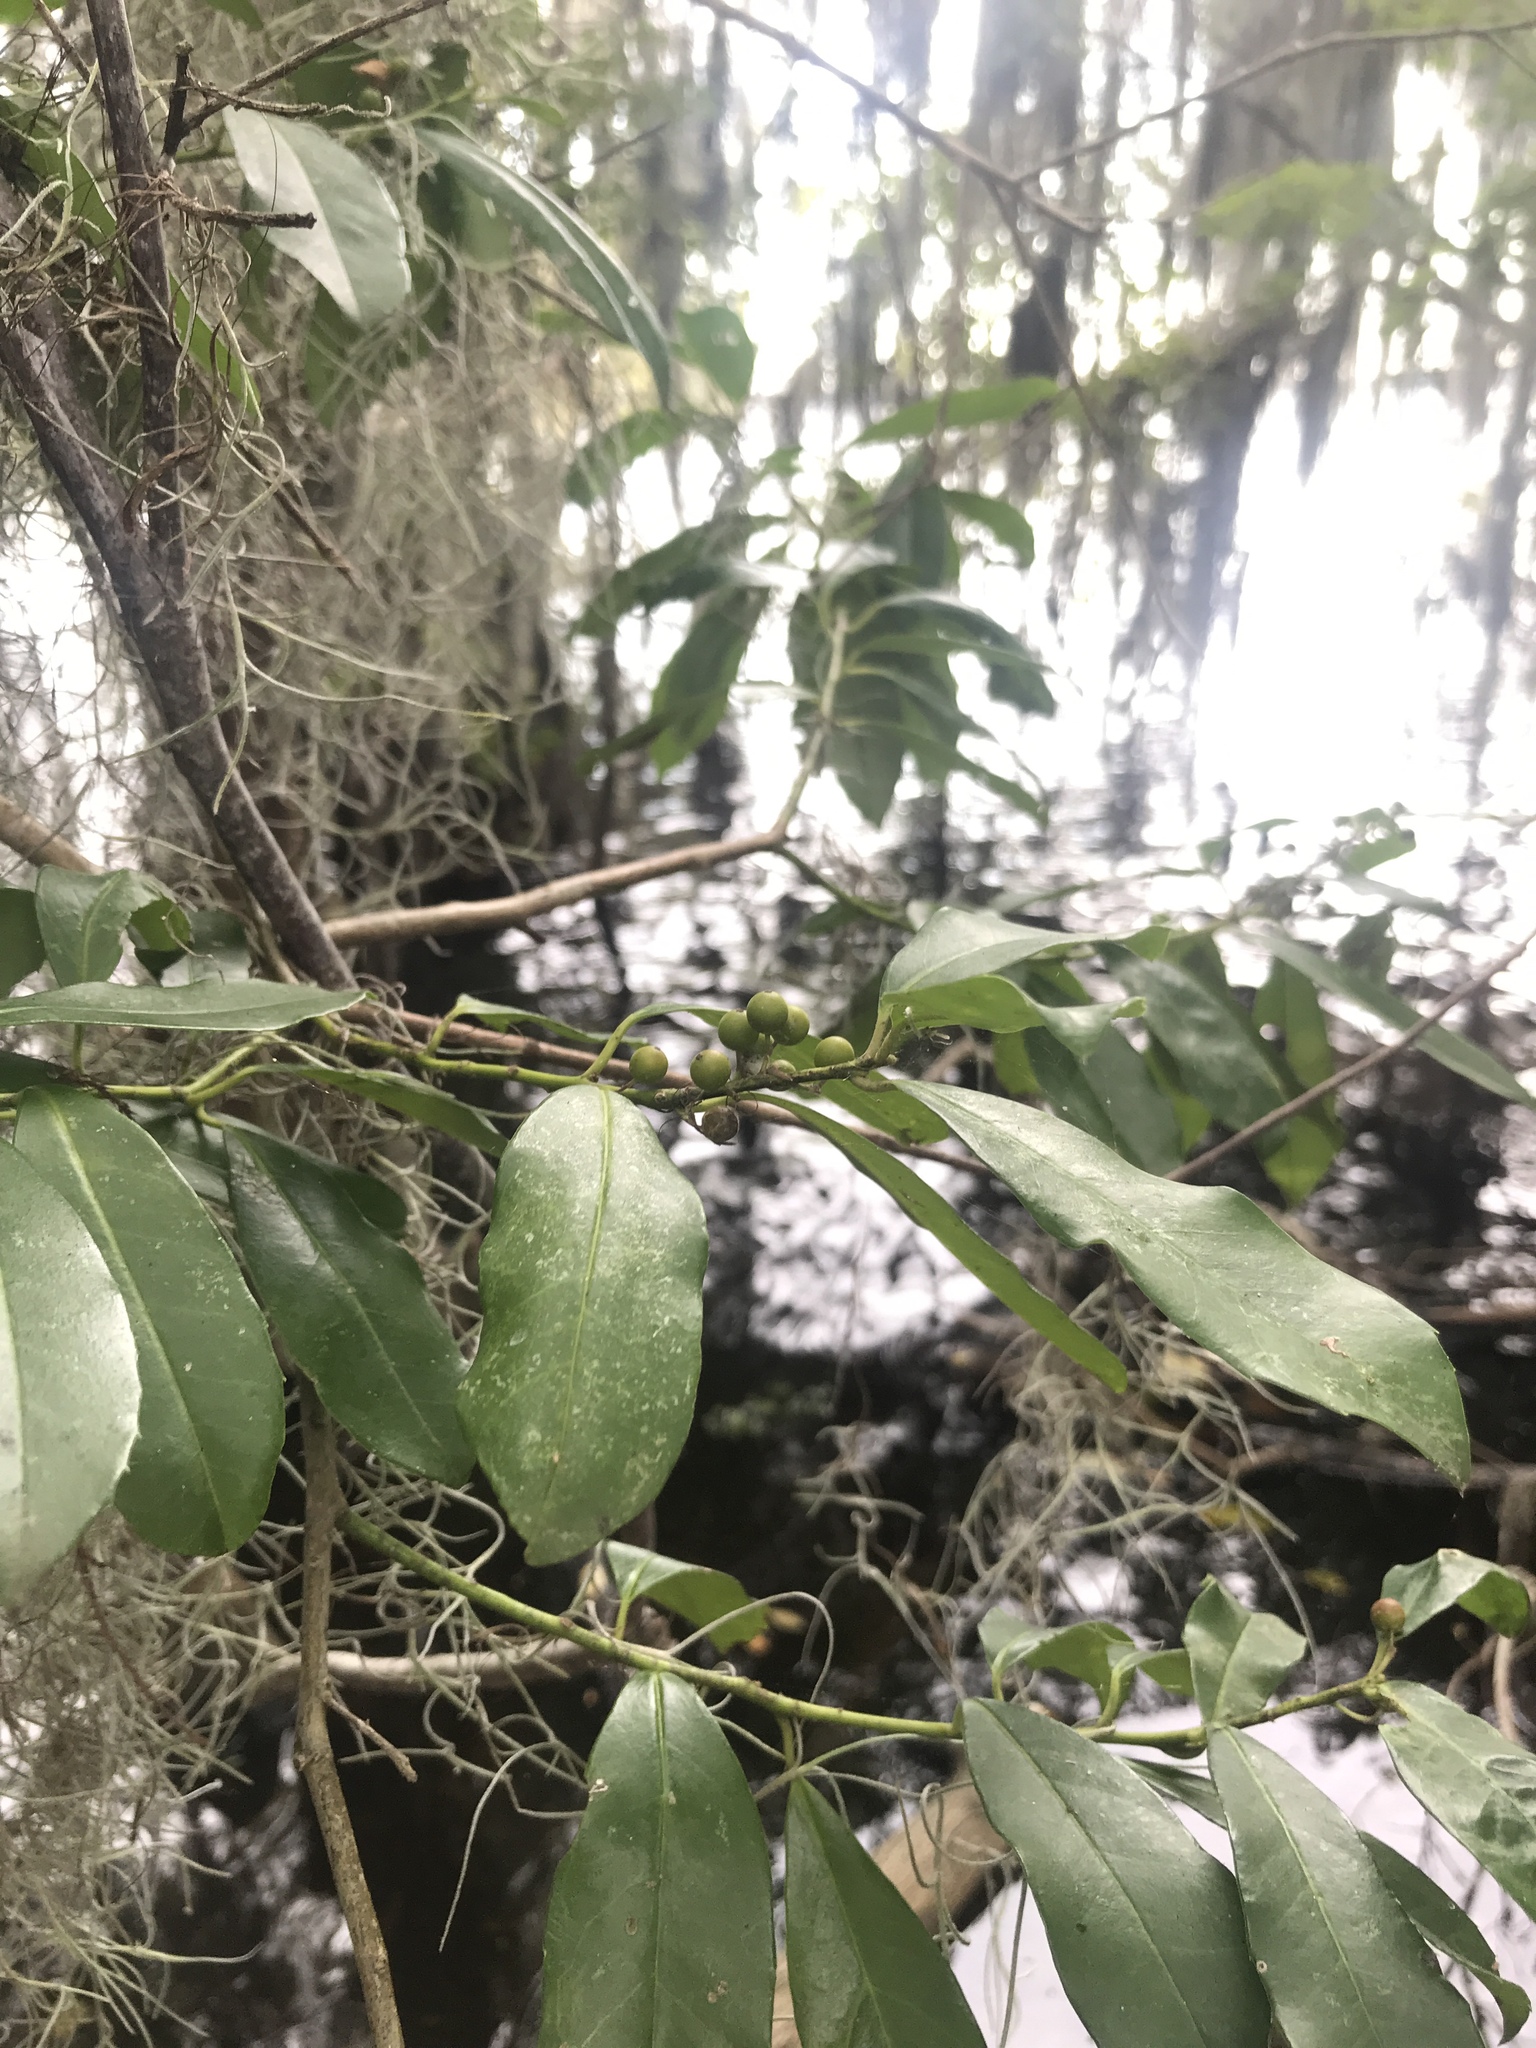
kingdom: Plantae
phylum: Tracheophyta
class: Magnoliopsida
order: Rosales
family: Rosaceae
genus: Prunus
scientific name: Prunus caroliniana
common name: Carolina laurel cherry
